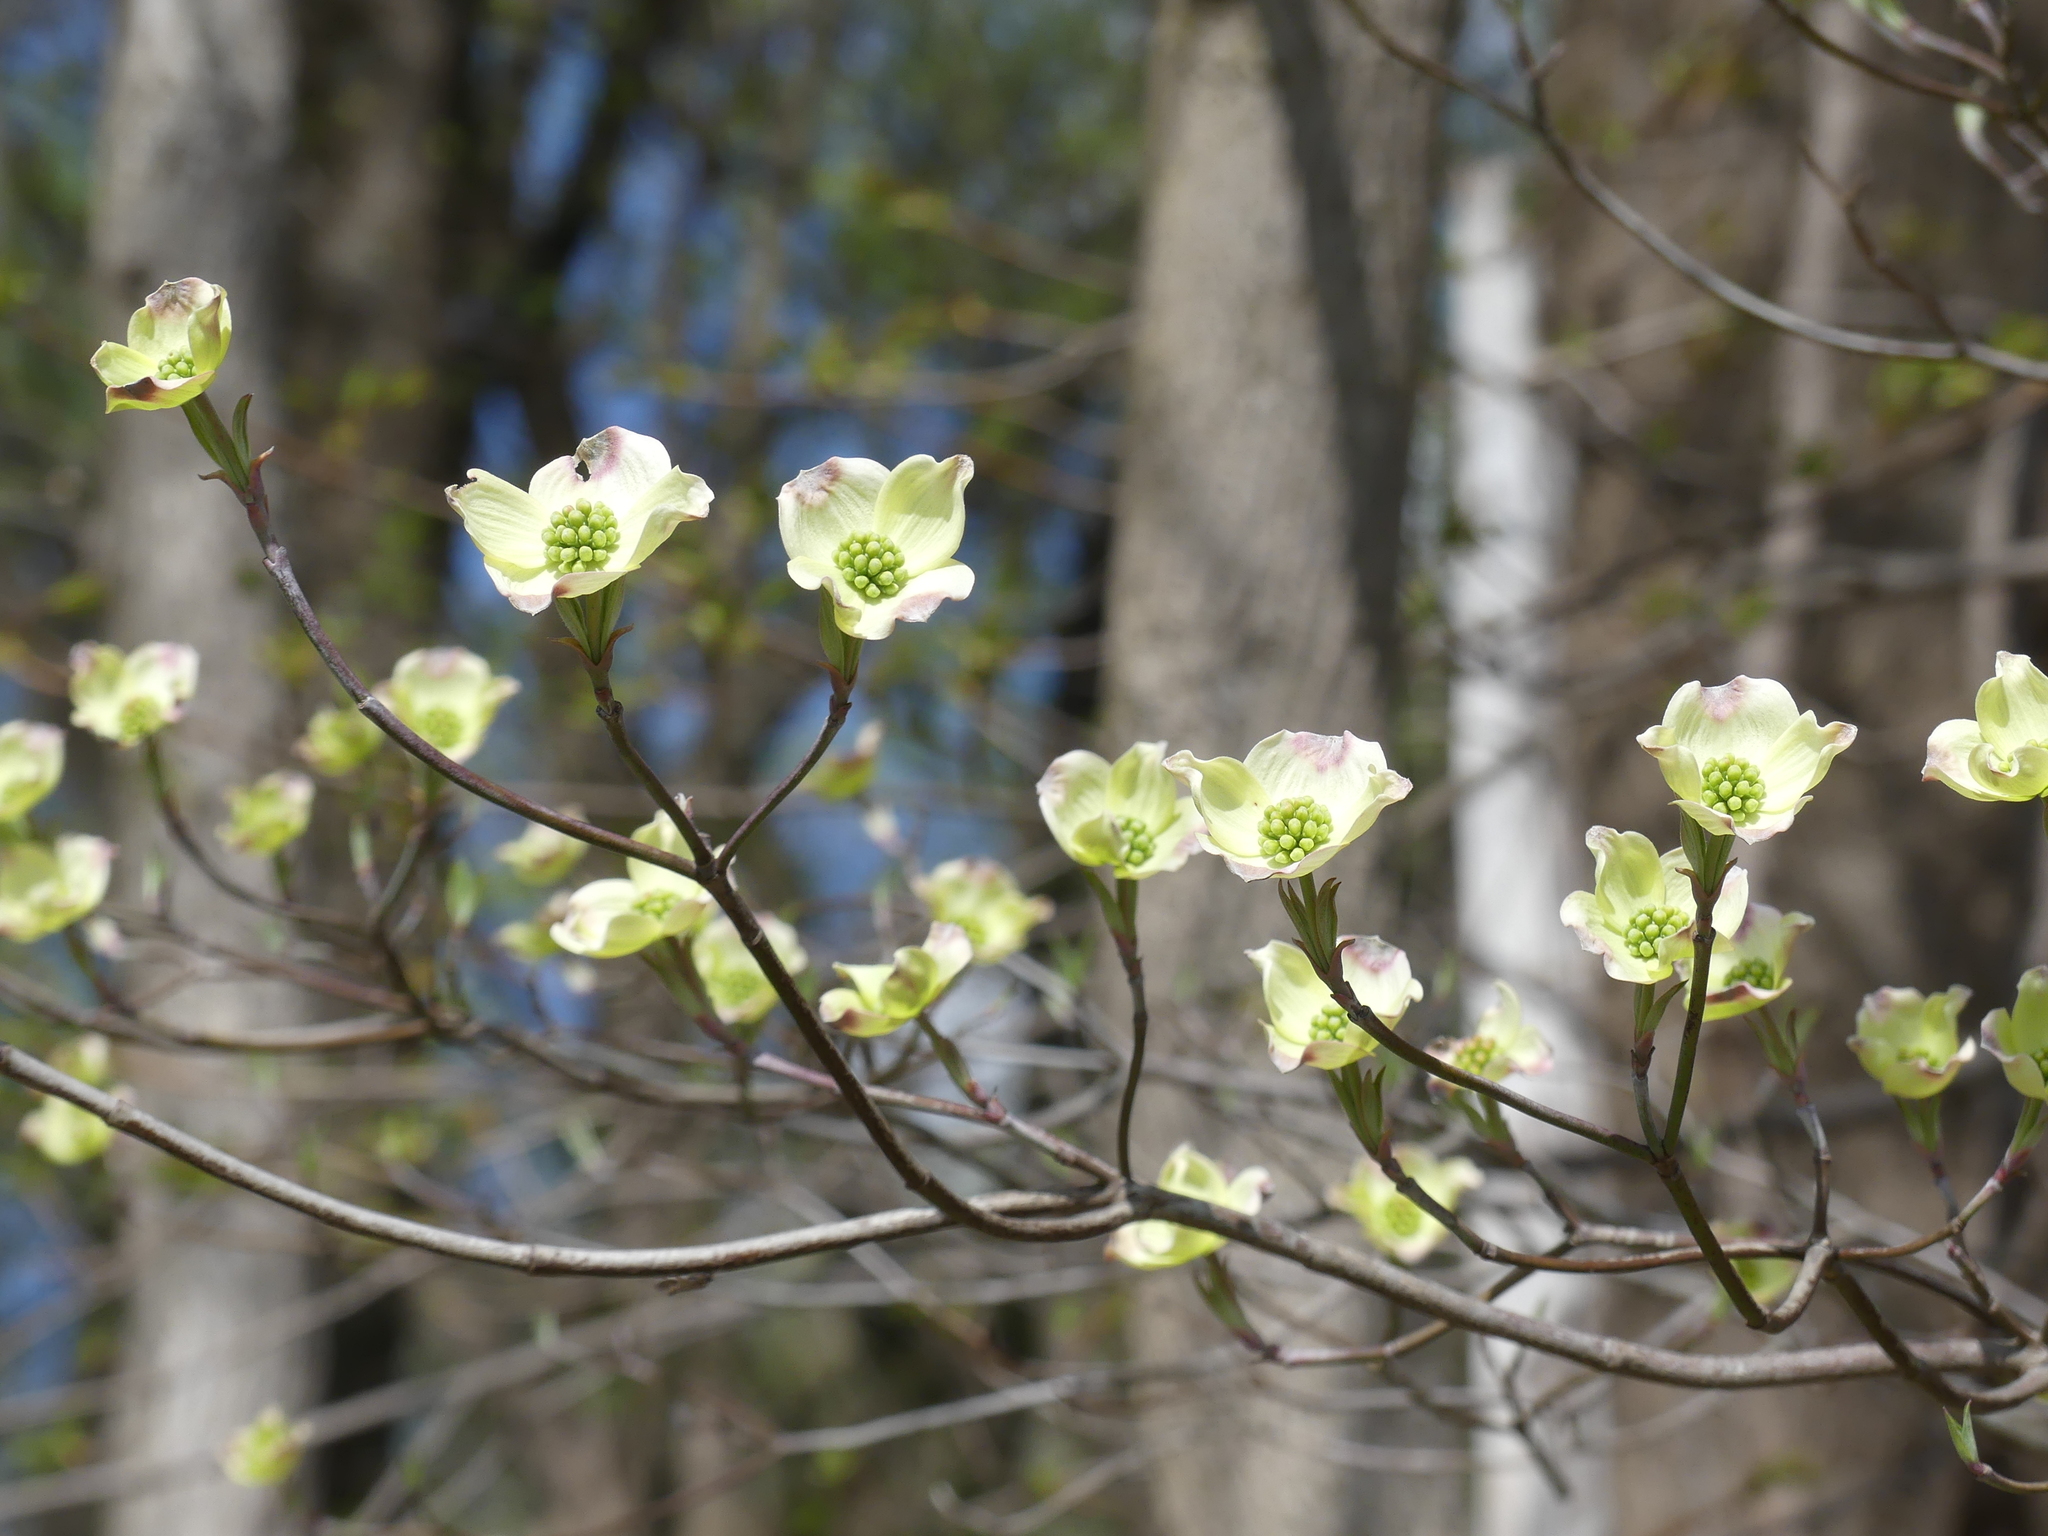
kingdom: Plantae
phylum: Tracheophyta
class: Magnoliopsida
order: Cornales
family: Cornaceae
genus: Cornus
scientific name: Cornus florida
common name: Flowering dogwood
